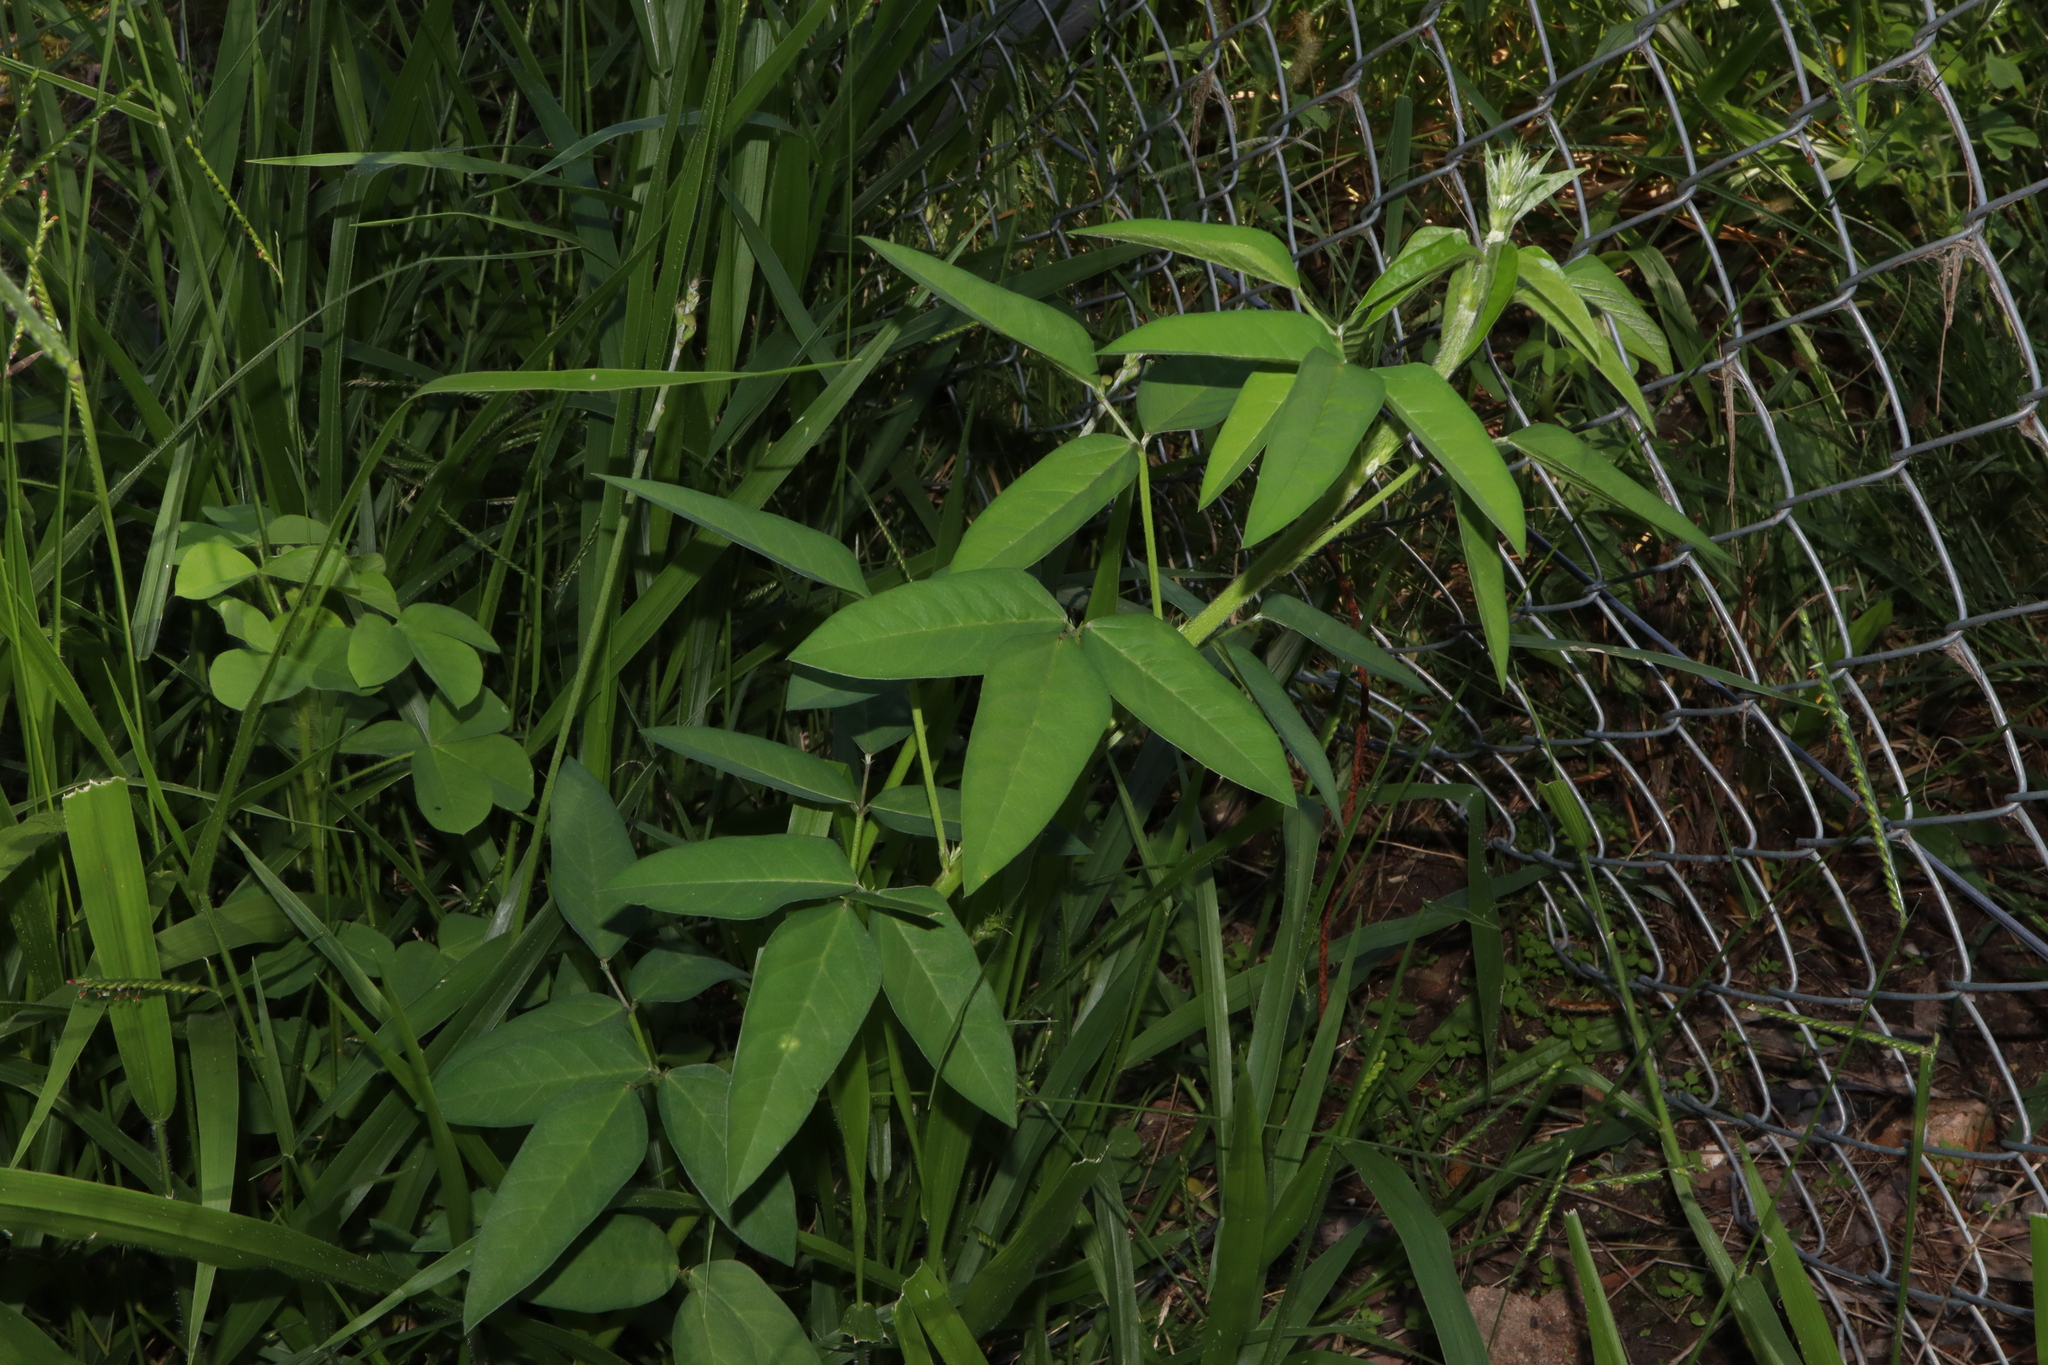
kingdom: Plantae
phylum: Tracheophyta
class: Magnoliopsida
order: Fabales
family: Fabaceae
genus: Macroptilium
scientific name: Macroptilium lathyroides
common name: Wild bushbean
